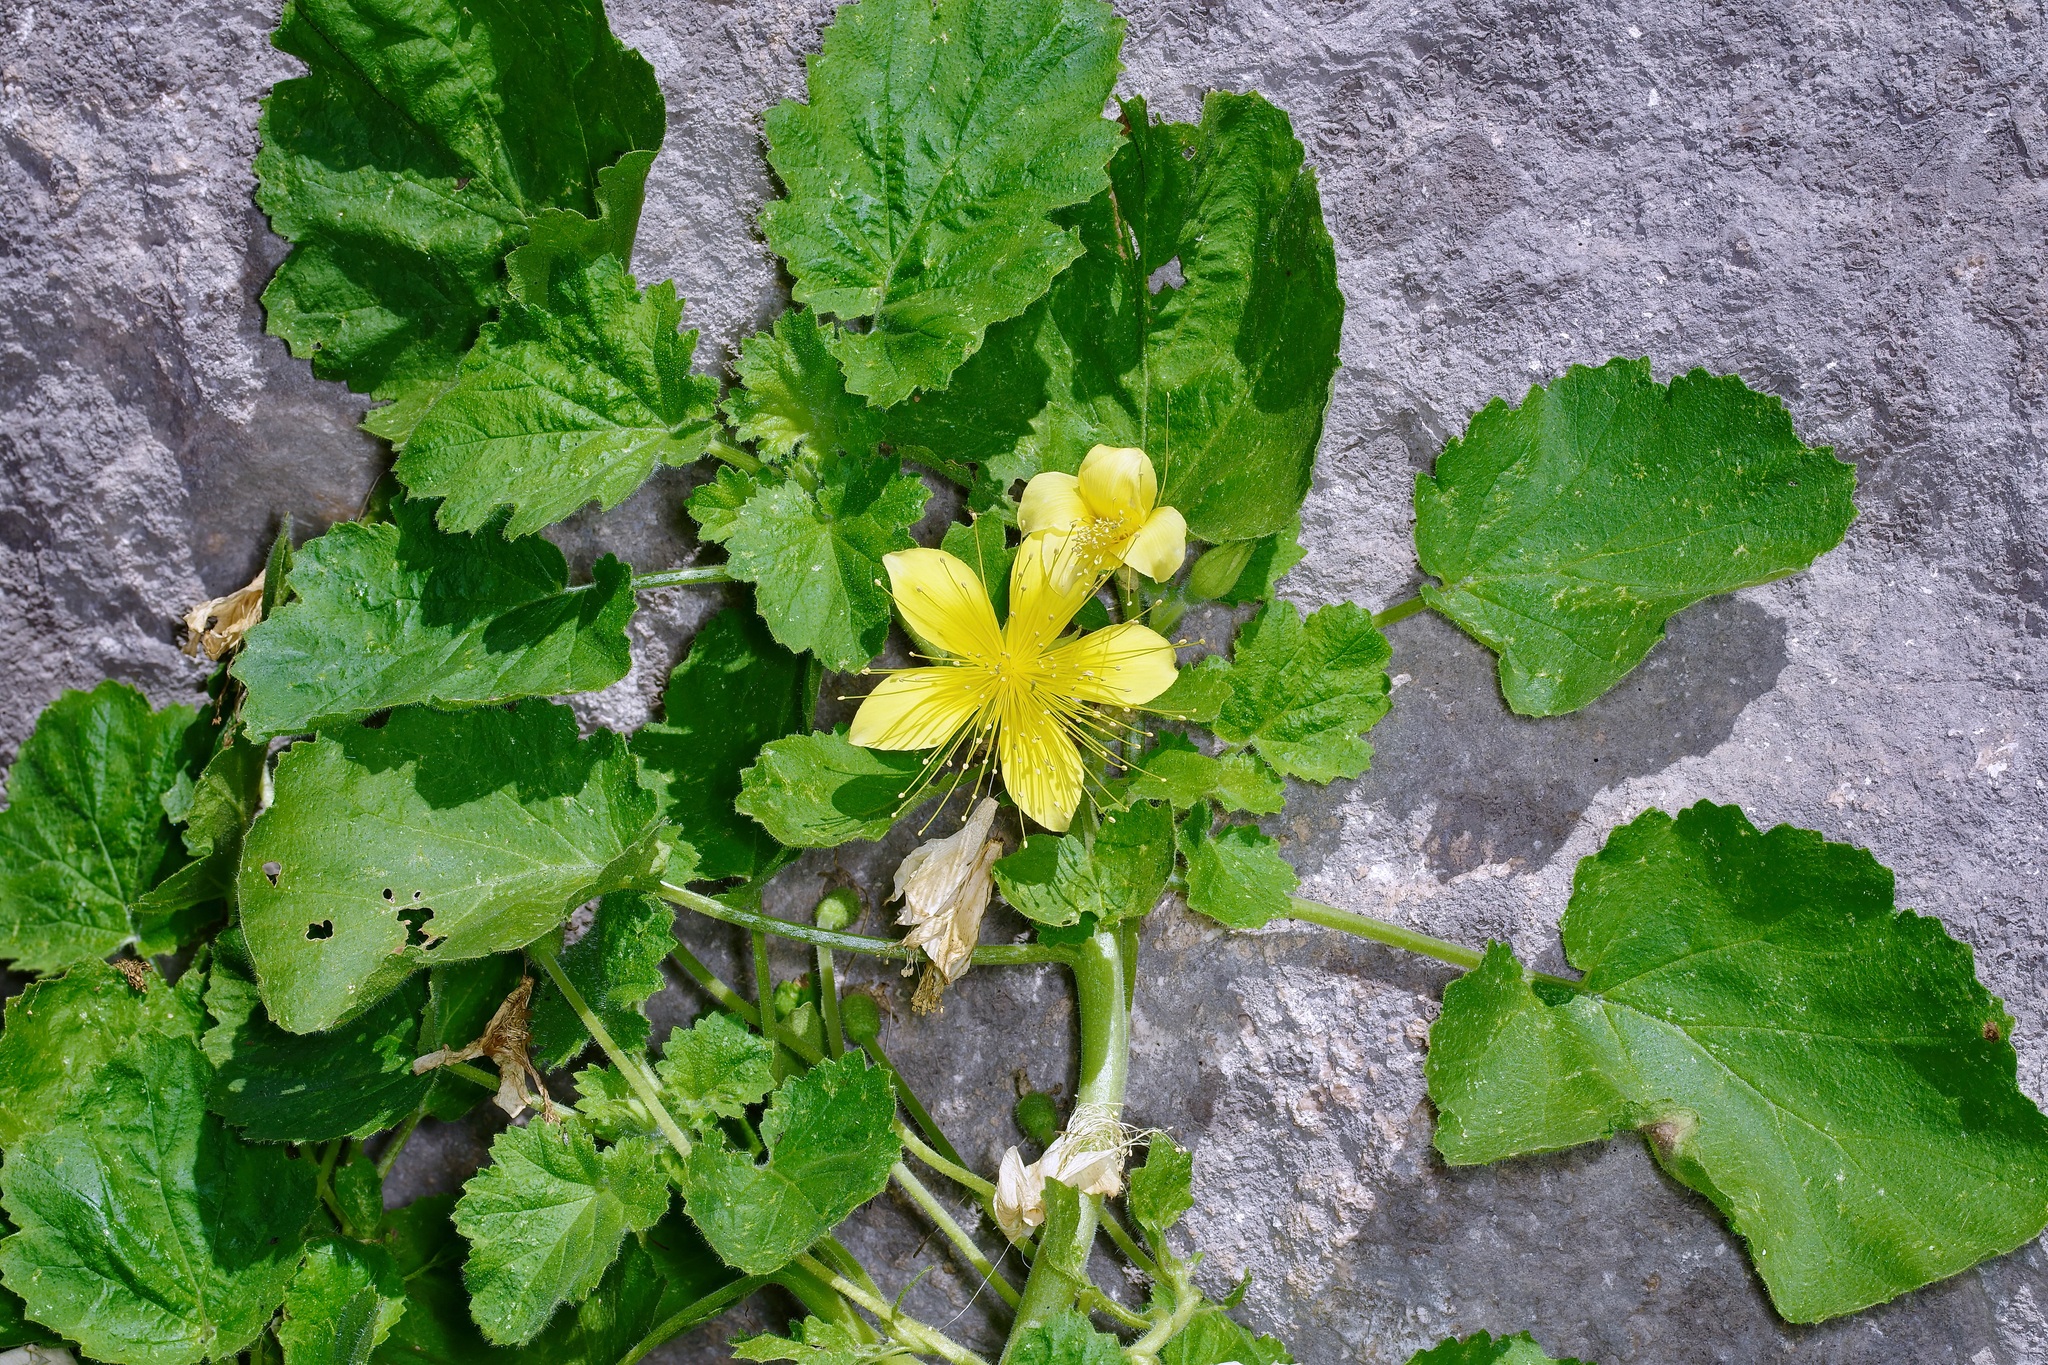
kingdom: Plantae
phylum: Tracheophyta
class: Magnoliopsida
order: Cornales
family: Loasaceae
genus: Eucnide
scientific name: Eucnide bartonioides
